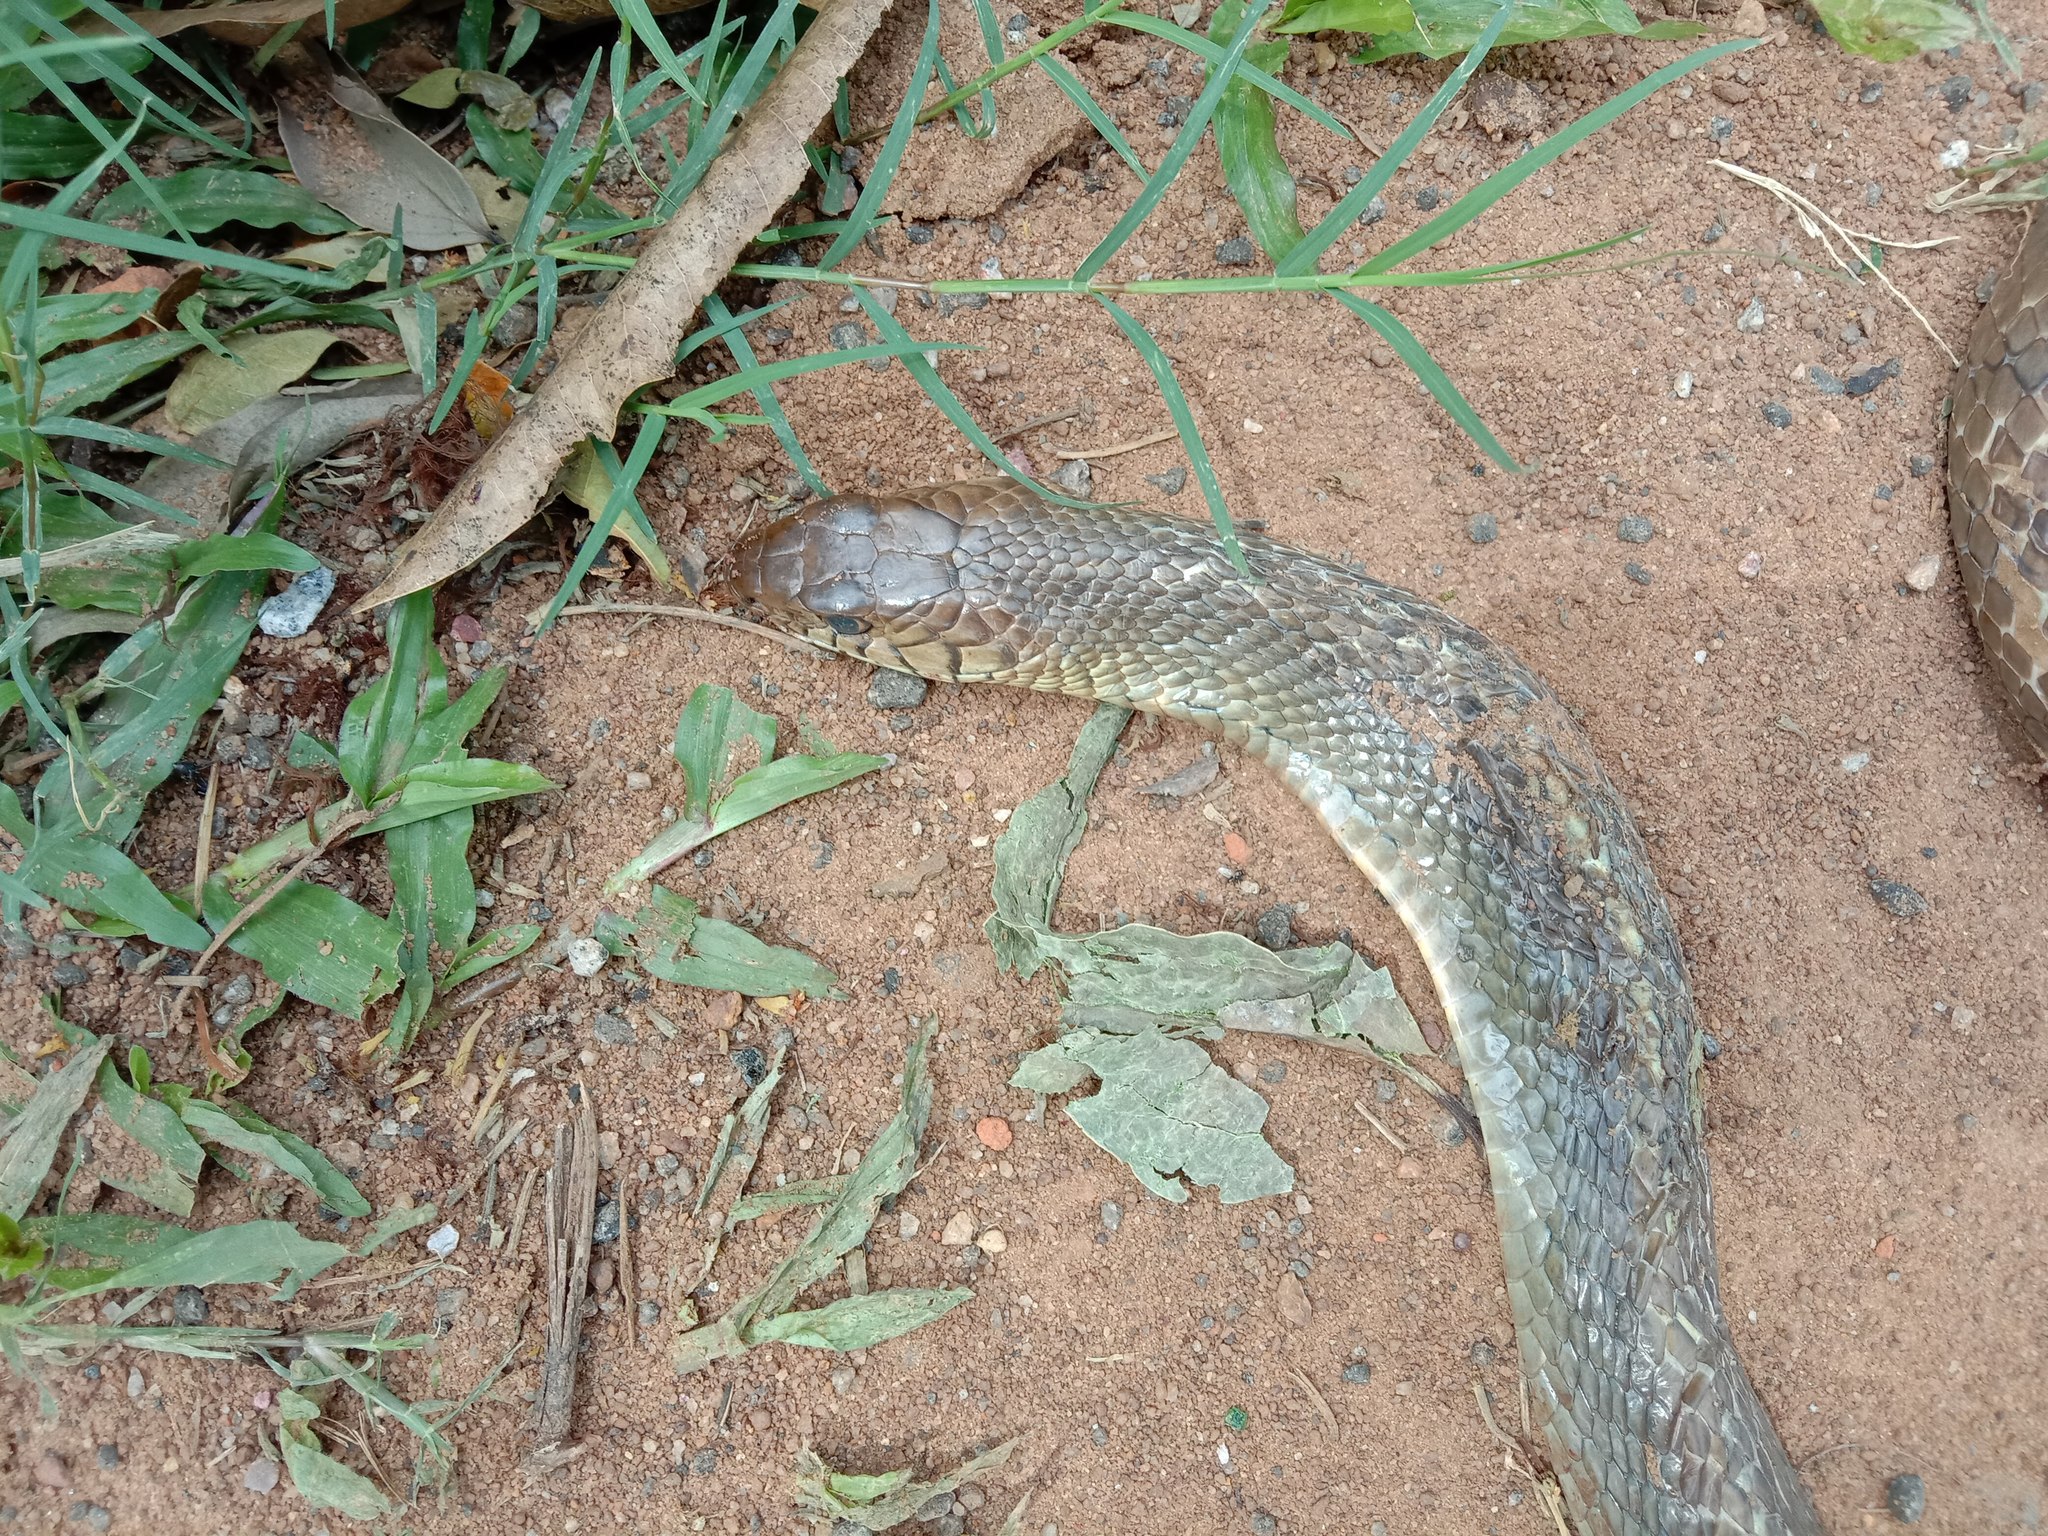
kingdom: Animalia
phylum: Chordata
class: Squamata
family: Colubridae
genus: Ptyas
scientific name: Ptyas mucosa
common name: Oriental ratsnake
